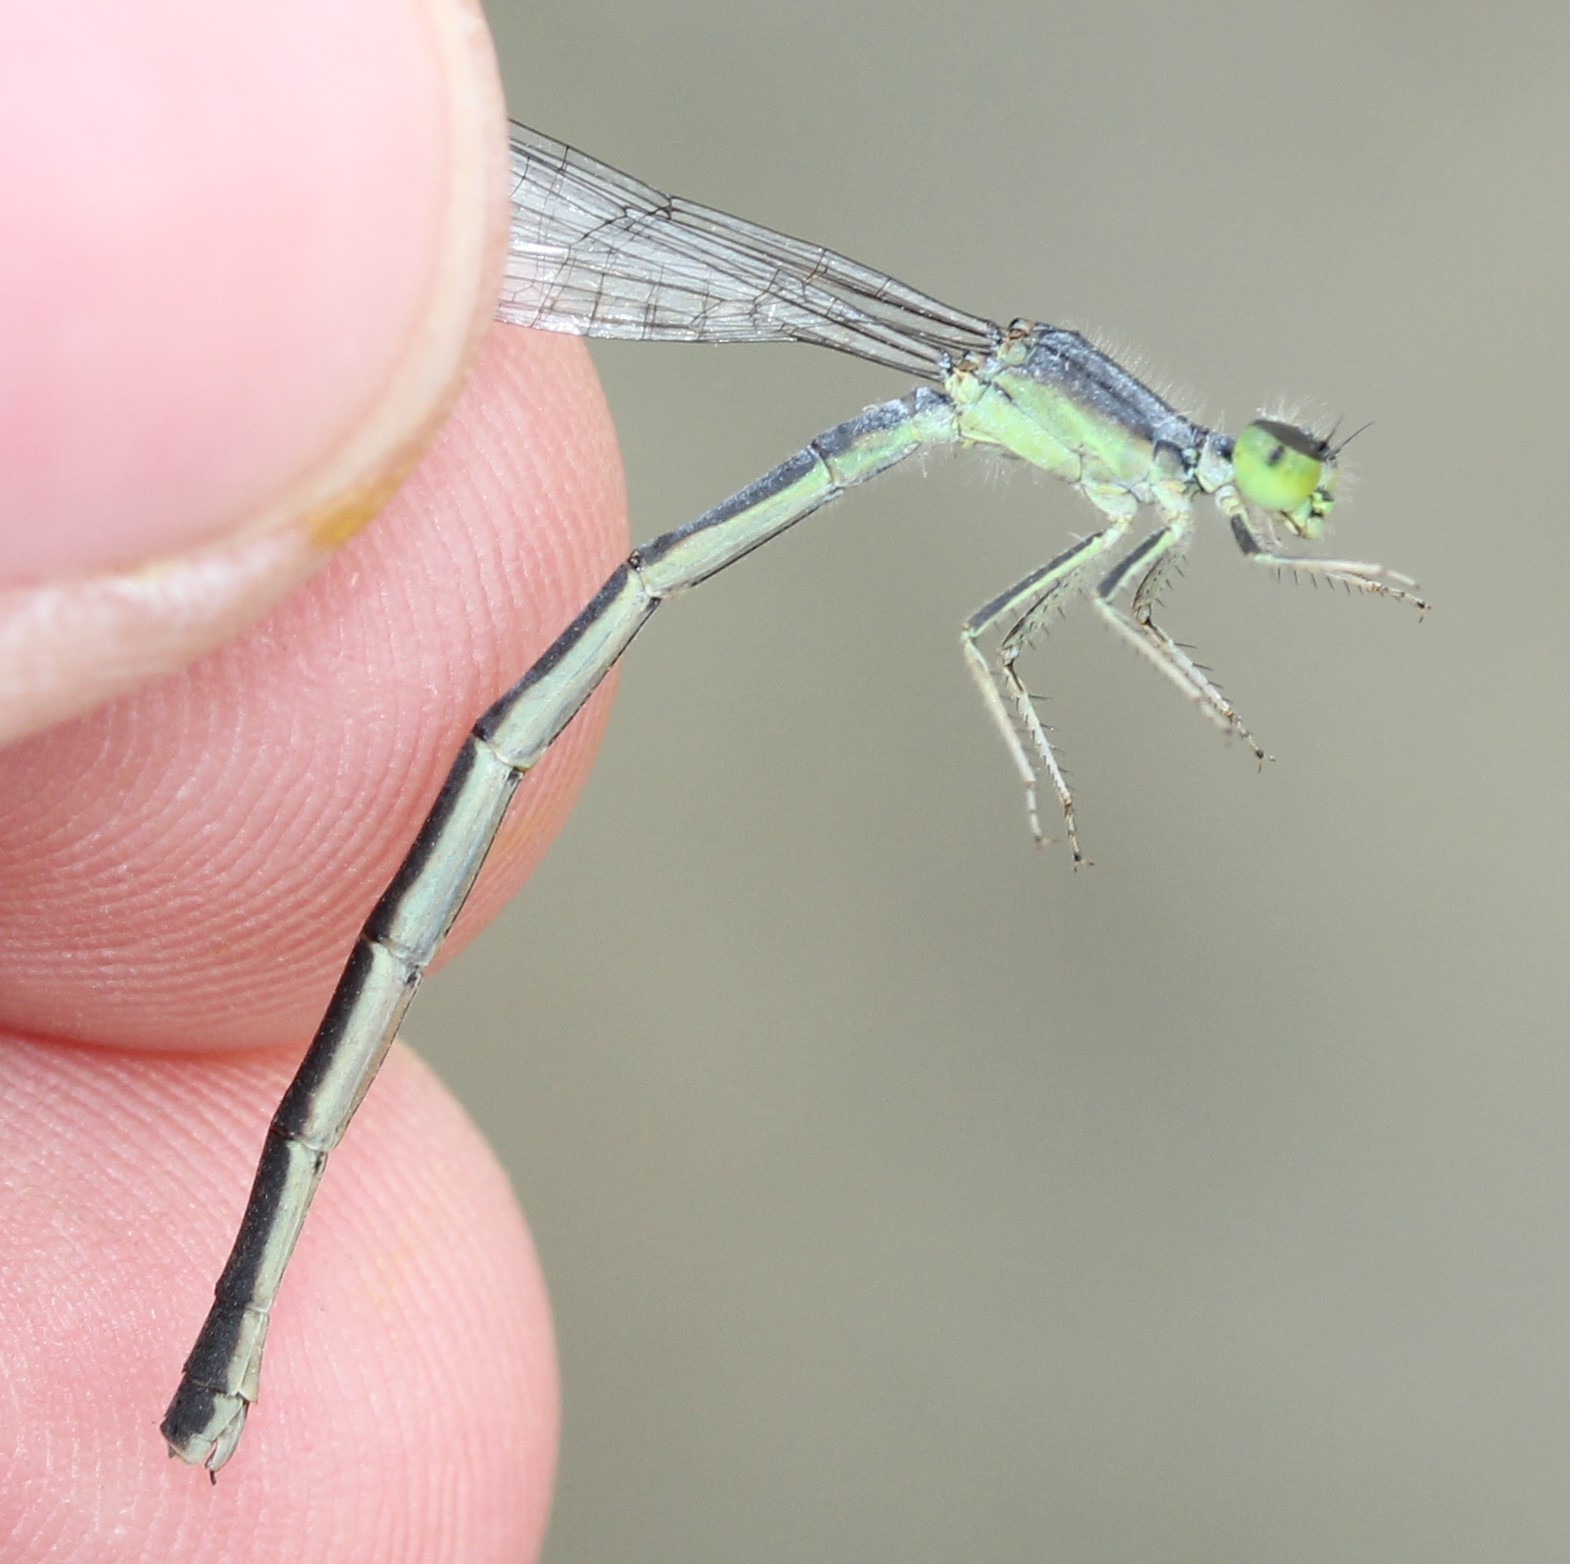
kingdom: Animalia
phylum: Arthropoda
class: Insecta
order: Odonata
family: Coenagrionidae
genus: Ischnura
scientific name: Ischnura verticalis
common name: Eastern forktail
